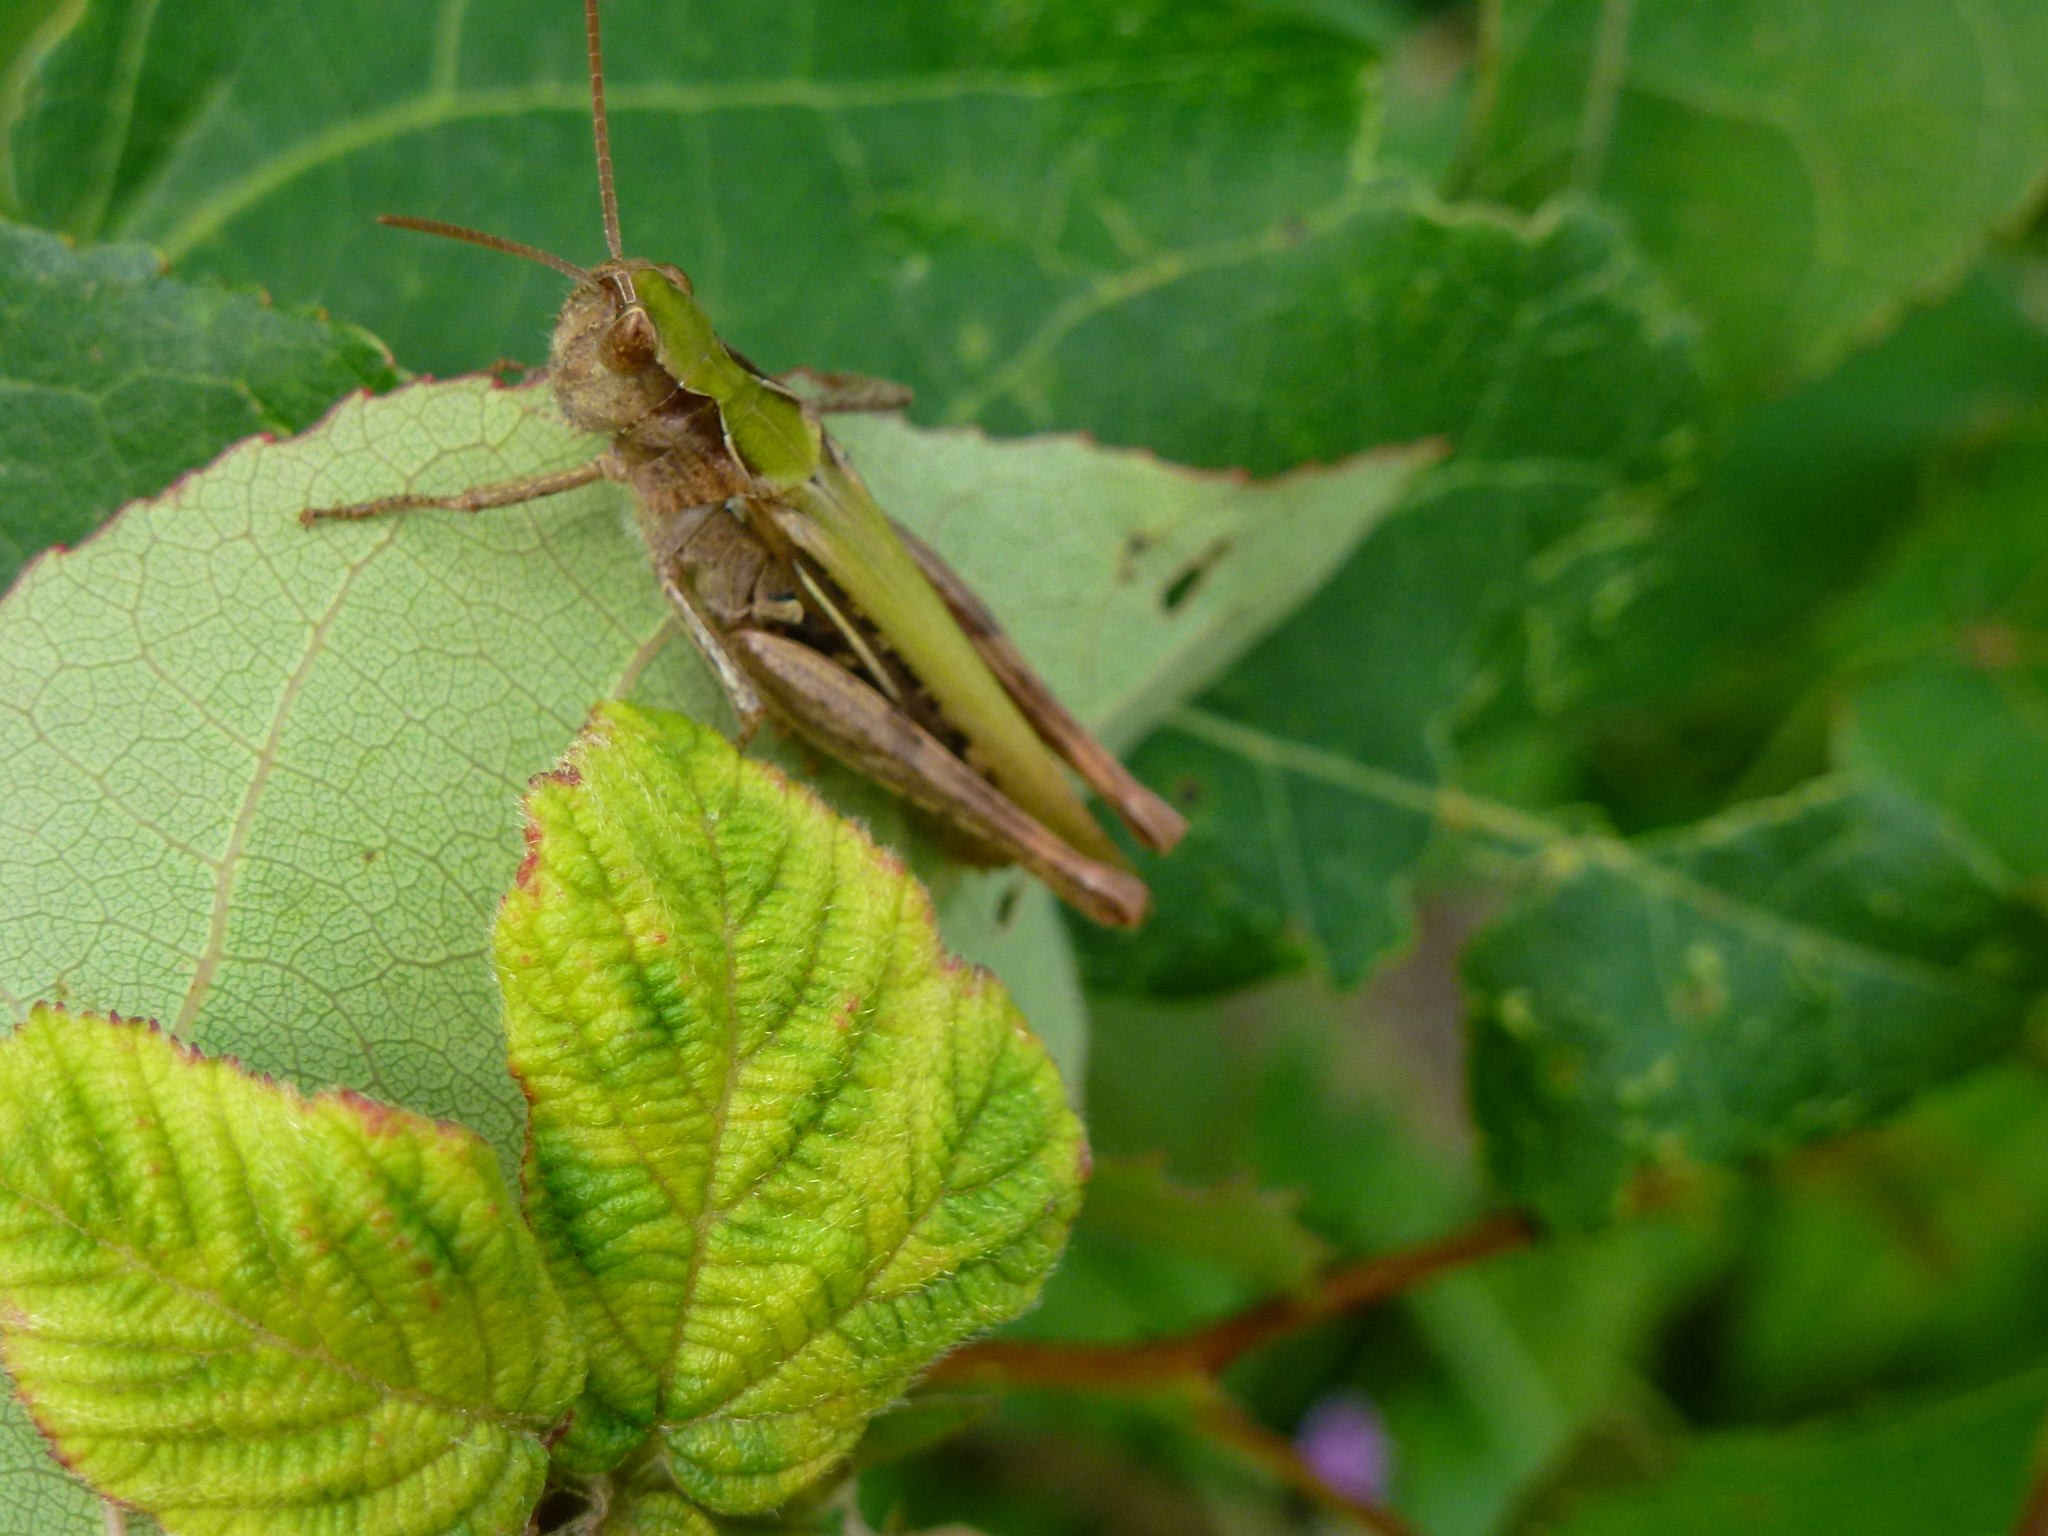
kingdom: Animalia
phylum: Arthropoda
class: Insecta
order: Orthoptera
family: Acrididae
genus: Chorthippus
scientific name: Chorthippus brunneus
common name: Field grasshopper
